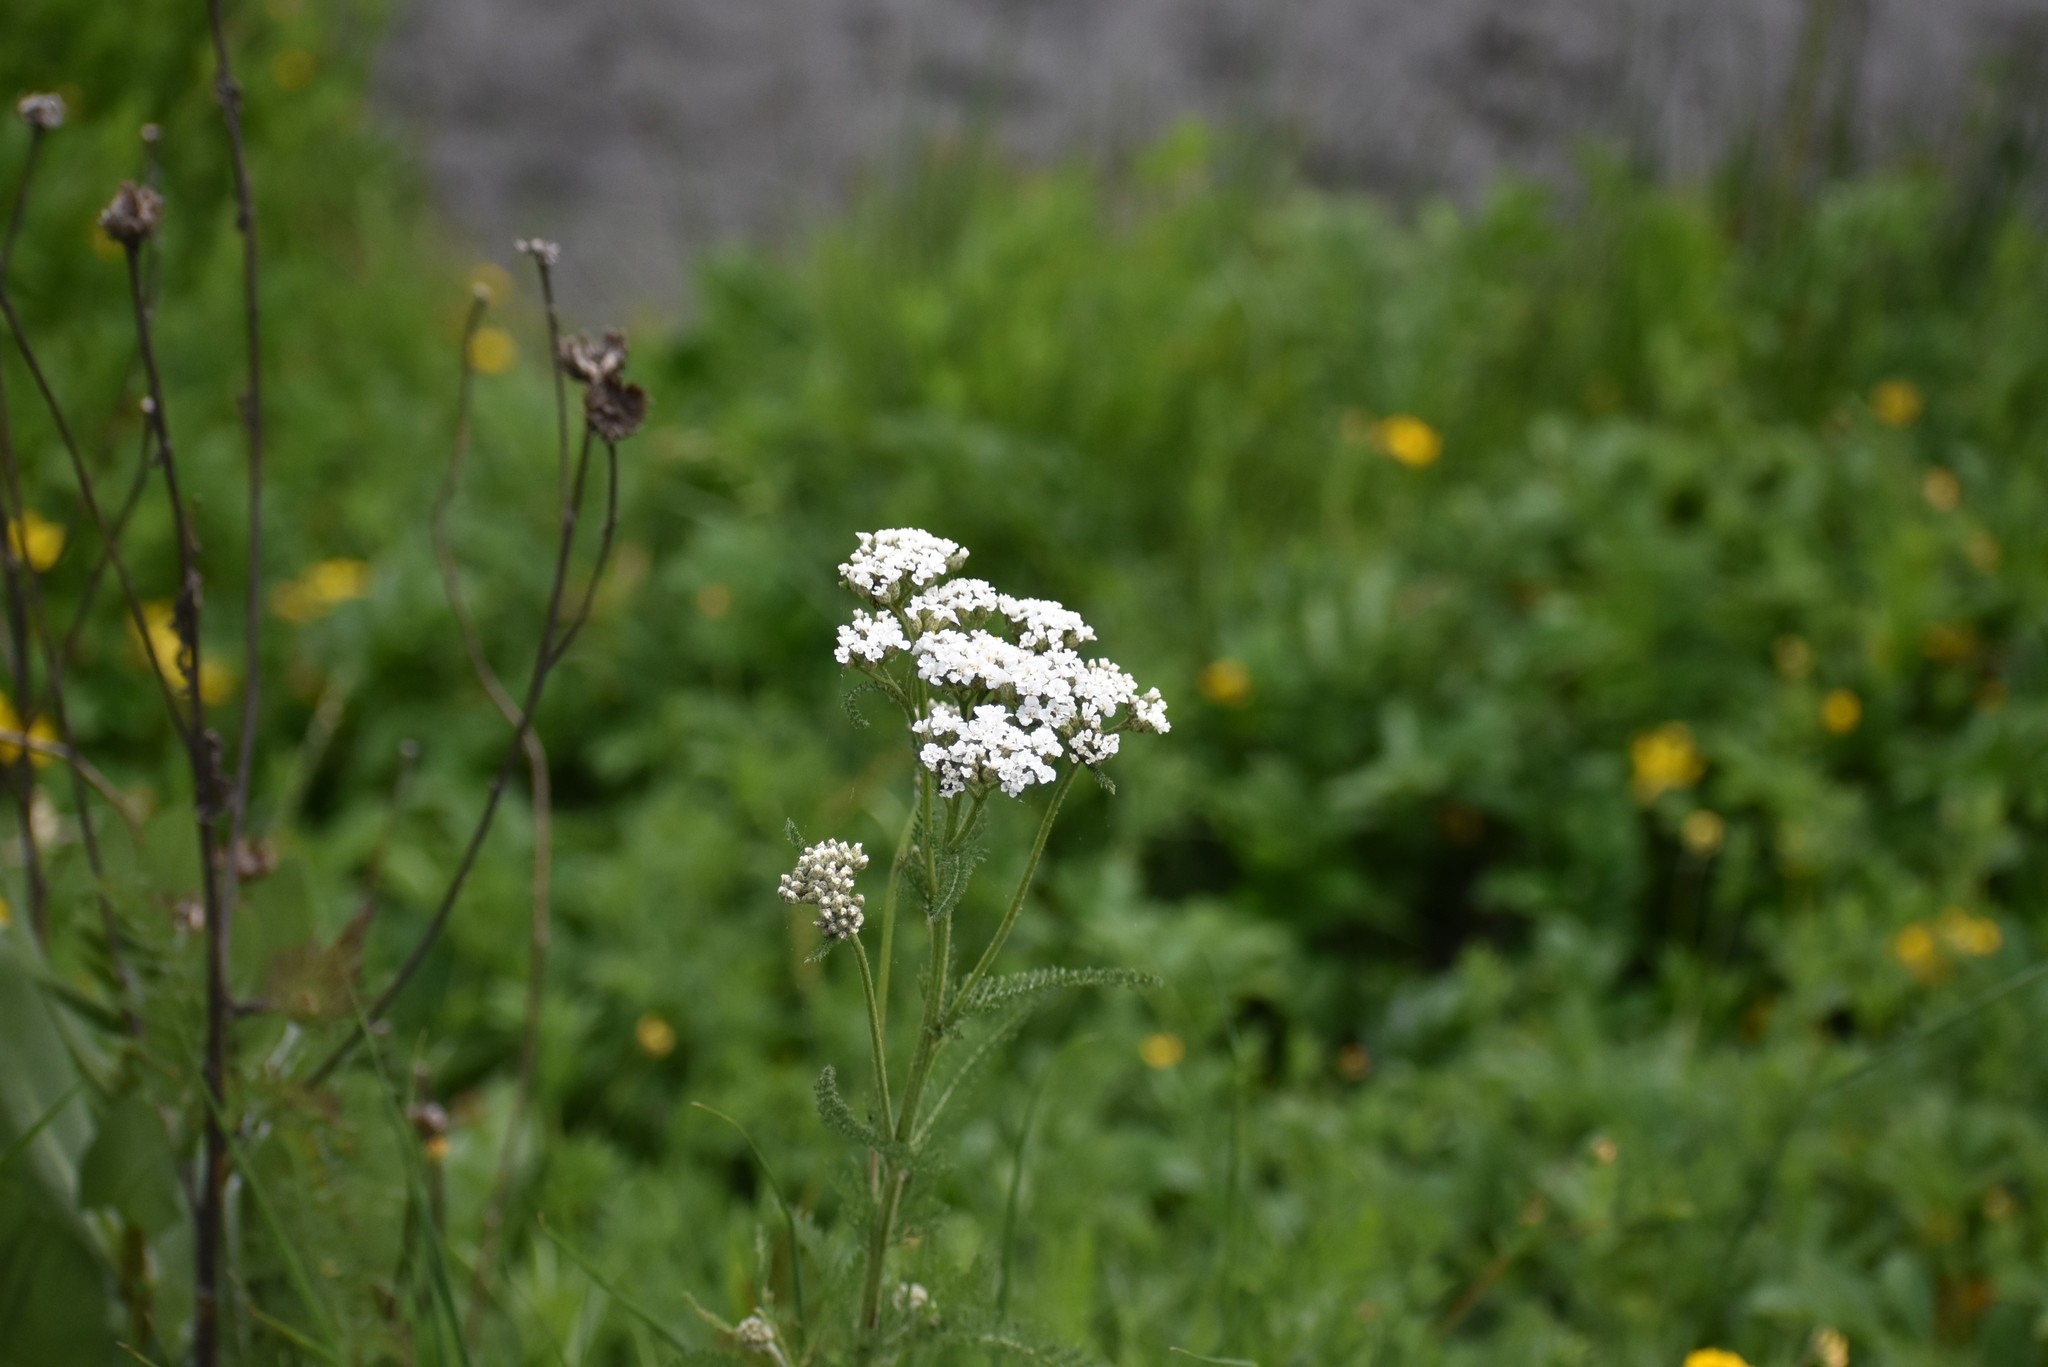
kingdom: Plantae
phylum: Tracheophyta
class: Magnoliopsida
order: Asterales
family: Asteraceae
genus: Achillea
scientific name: Achillea millefolium
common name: Yarrow
